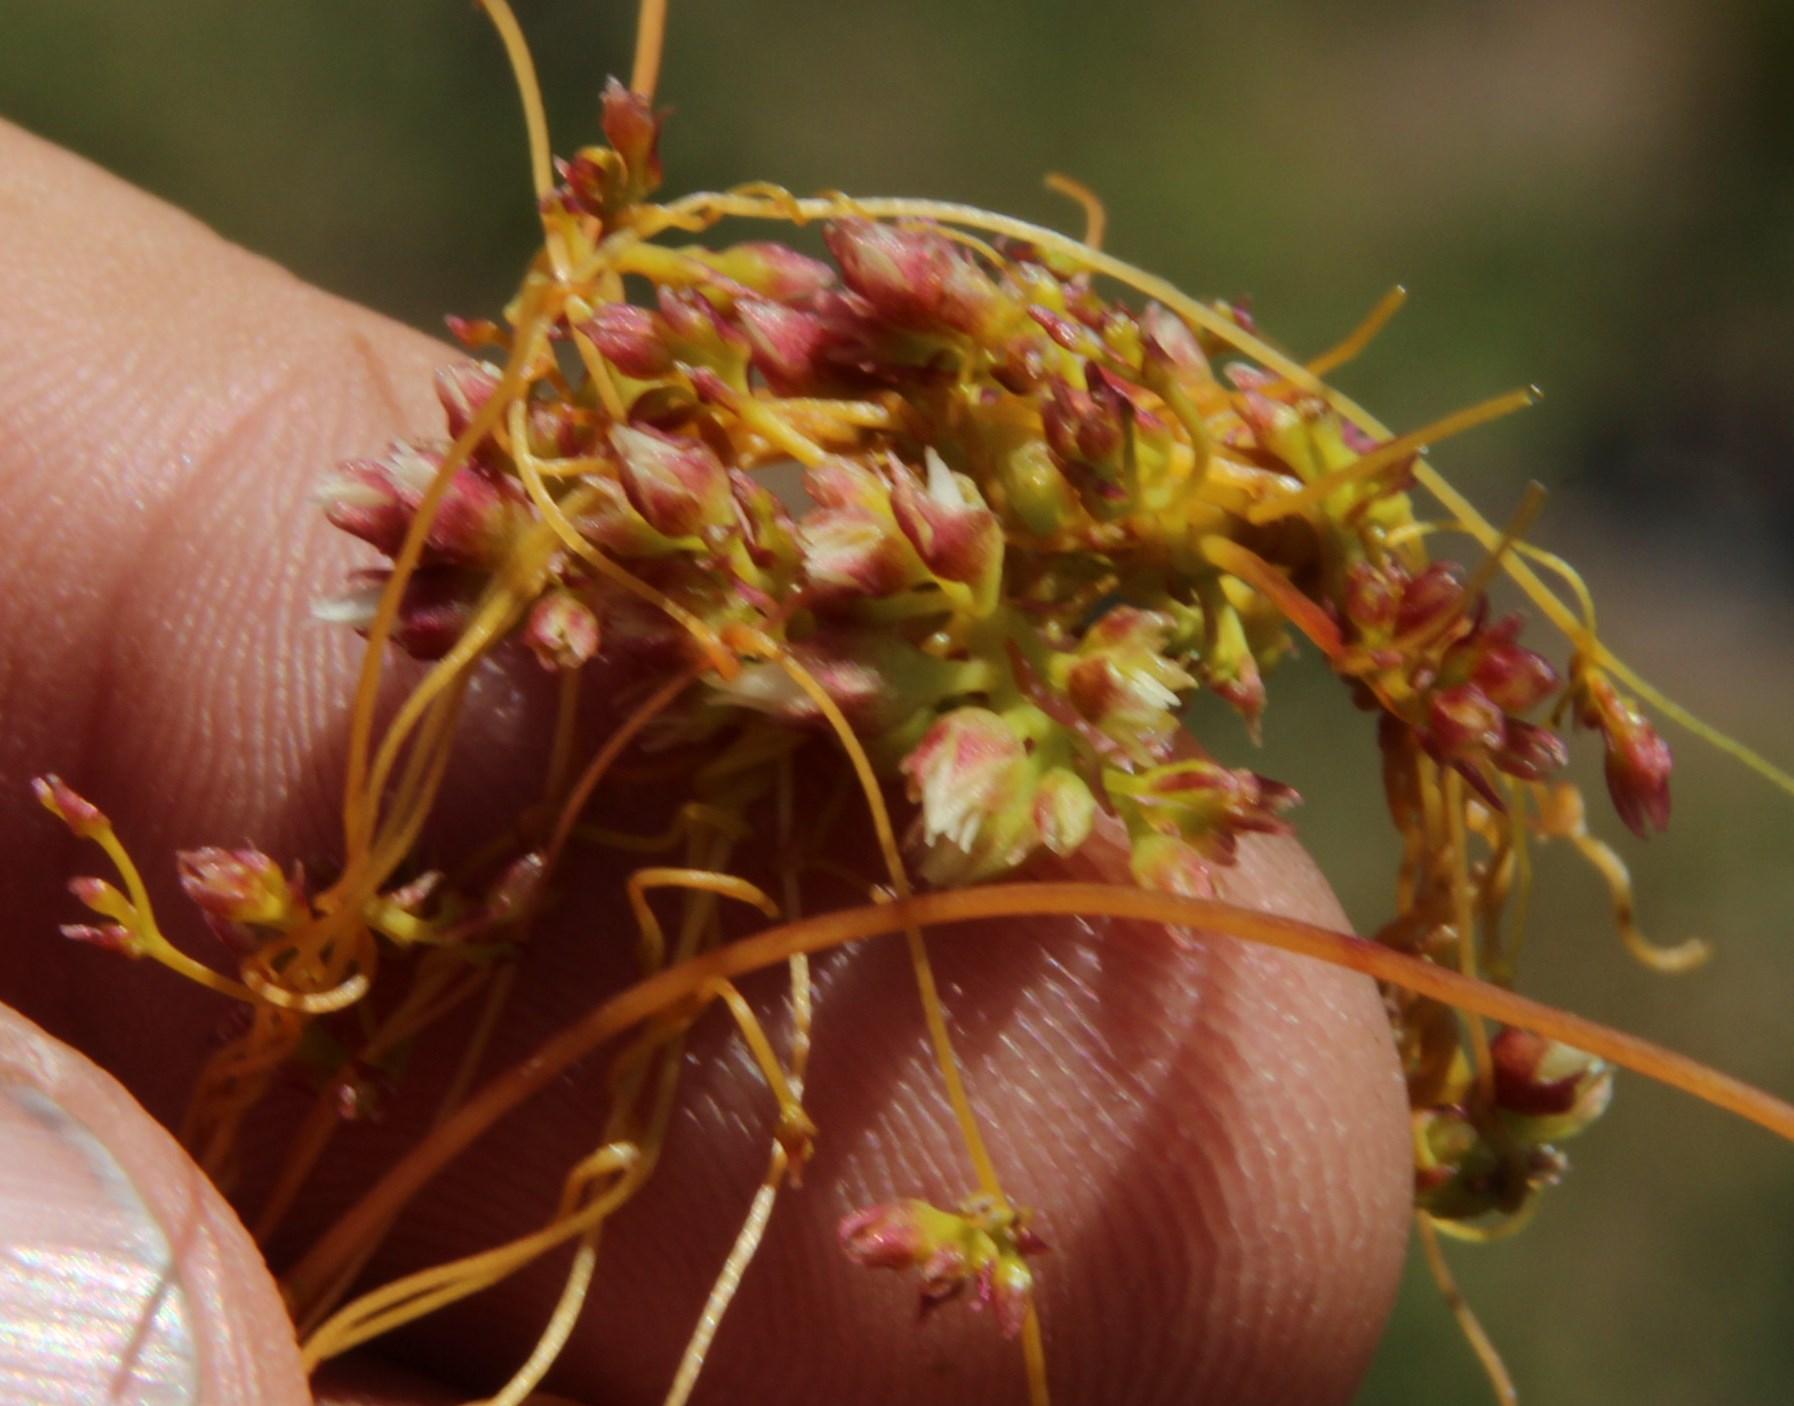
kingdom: Plantae
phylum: Tracheophyta
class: Magnoliopsida
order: Solanales
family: Convolvulaceae
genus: Cuscuta
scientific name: Cuscuta nitida
